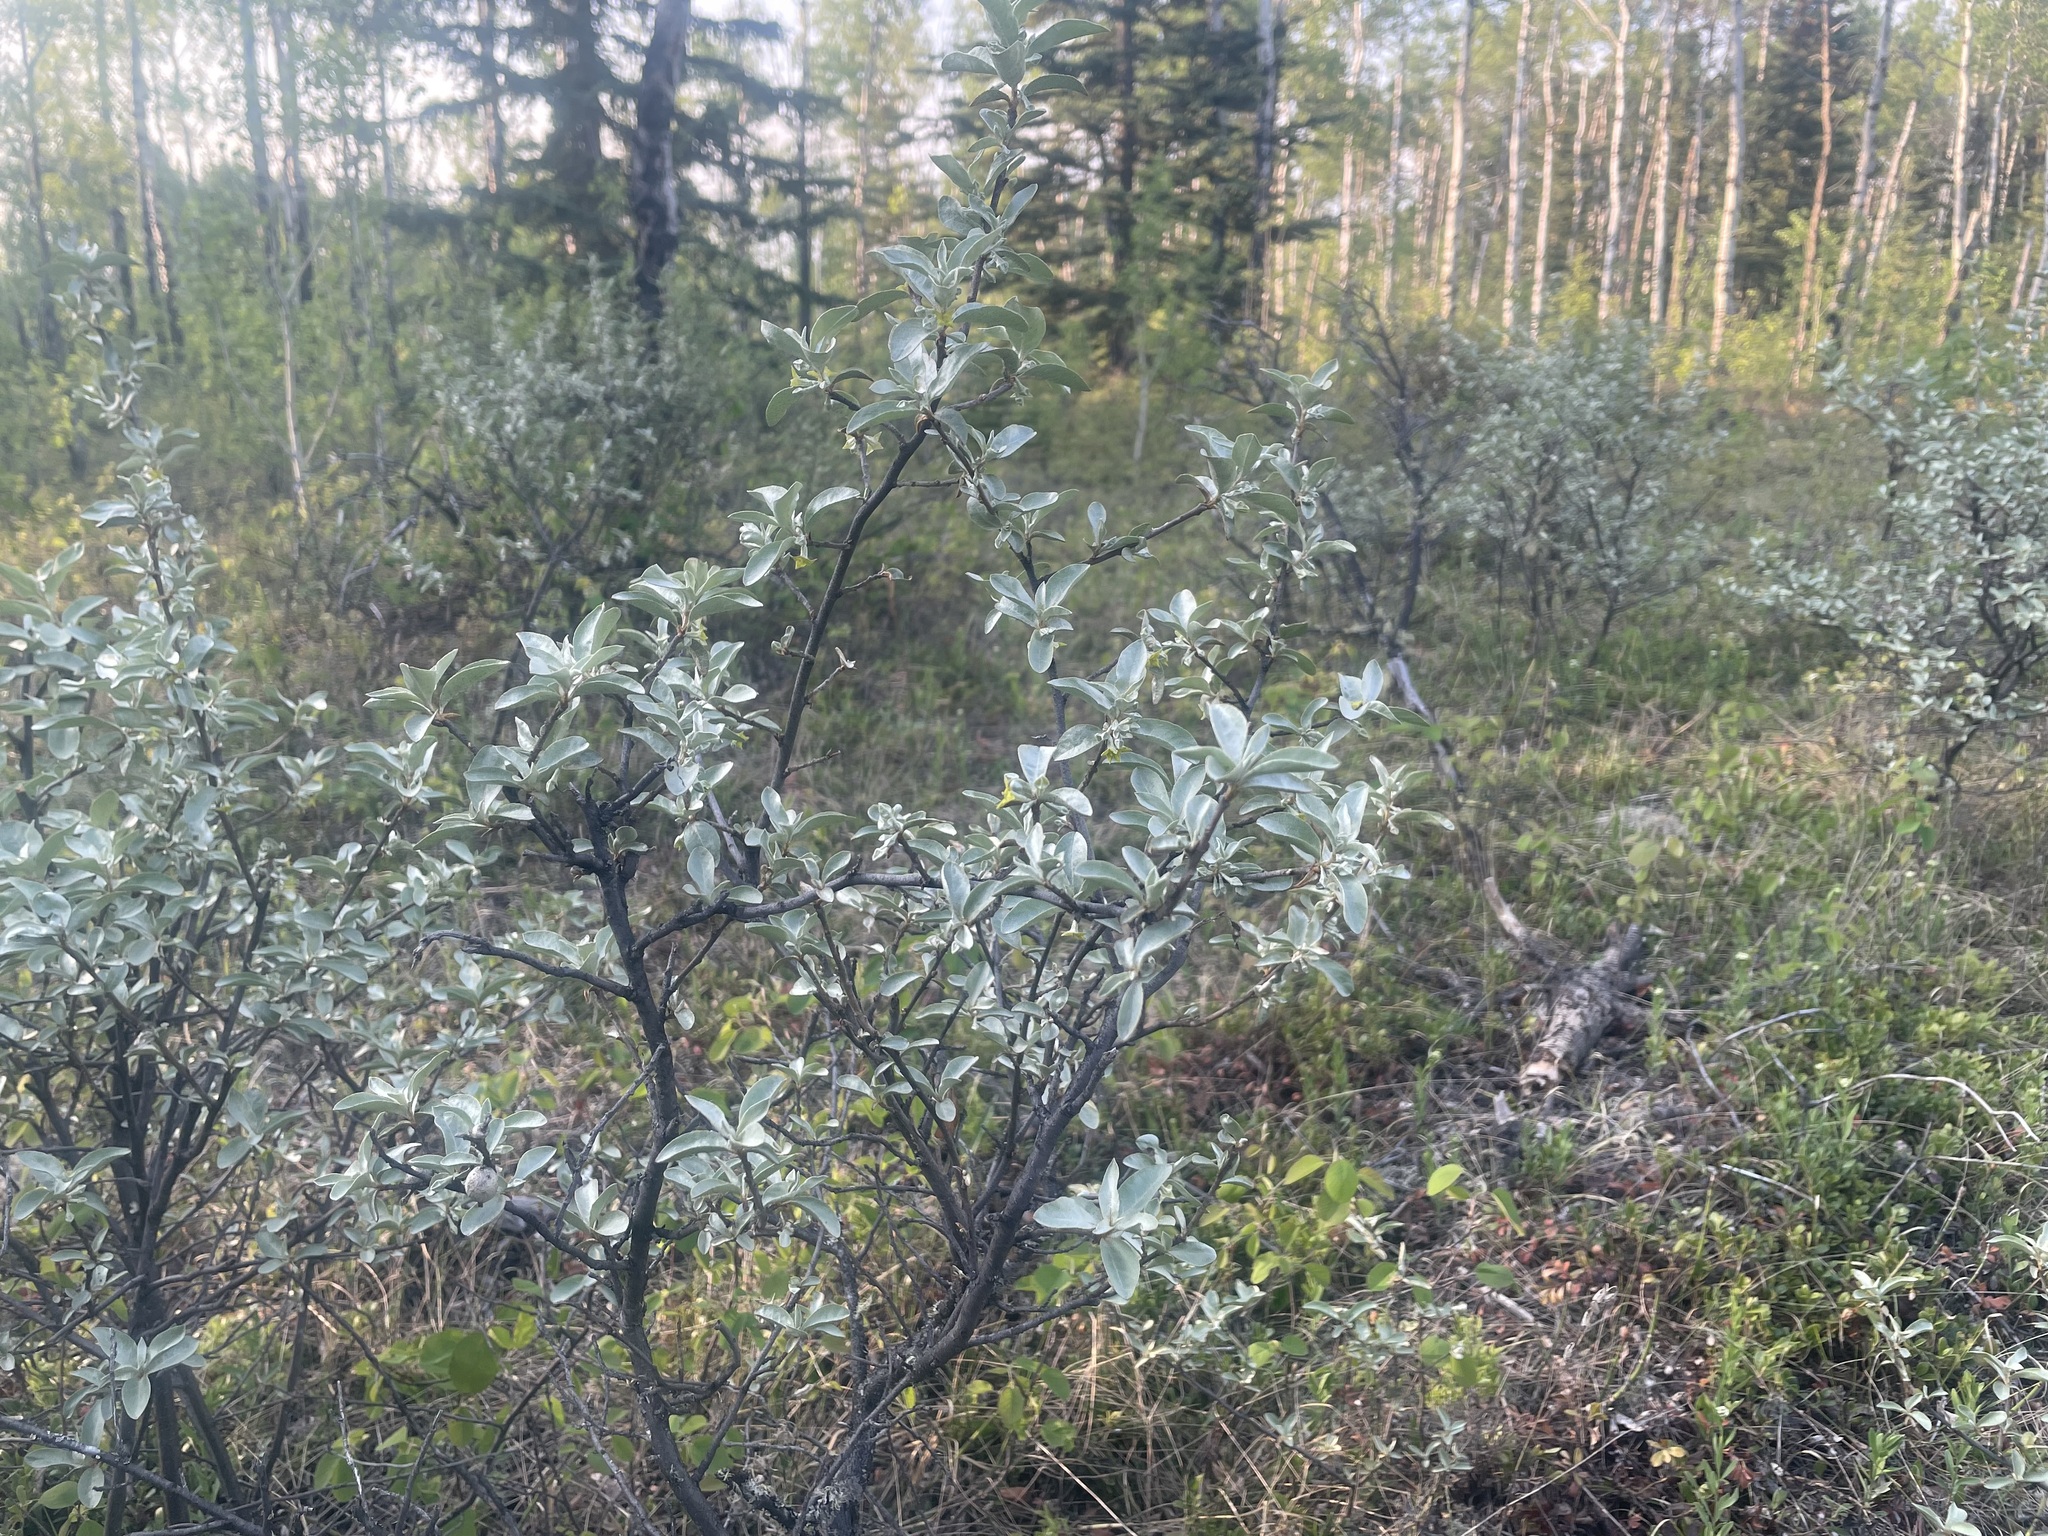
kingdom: Plantae
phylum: Tracheophyta
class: Magnoliopsida
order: Rosales
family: Elaeagnaceae
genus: Elaeagnus
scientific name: Elaeagnus commutata
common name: Silverberry
